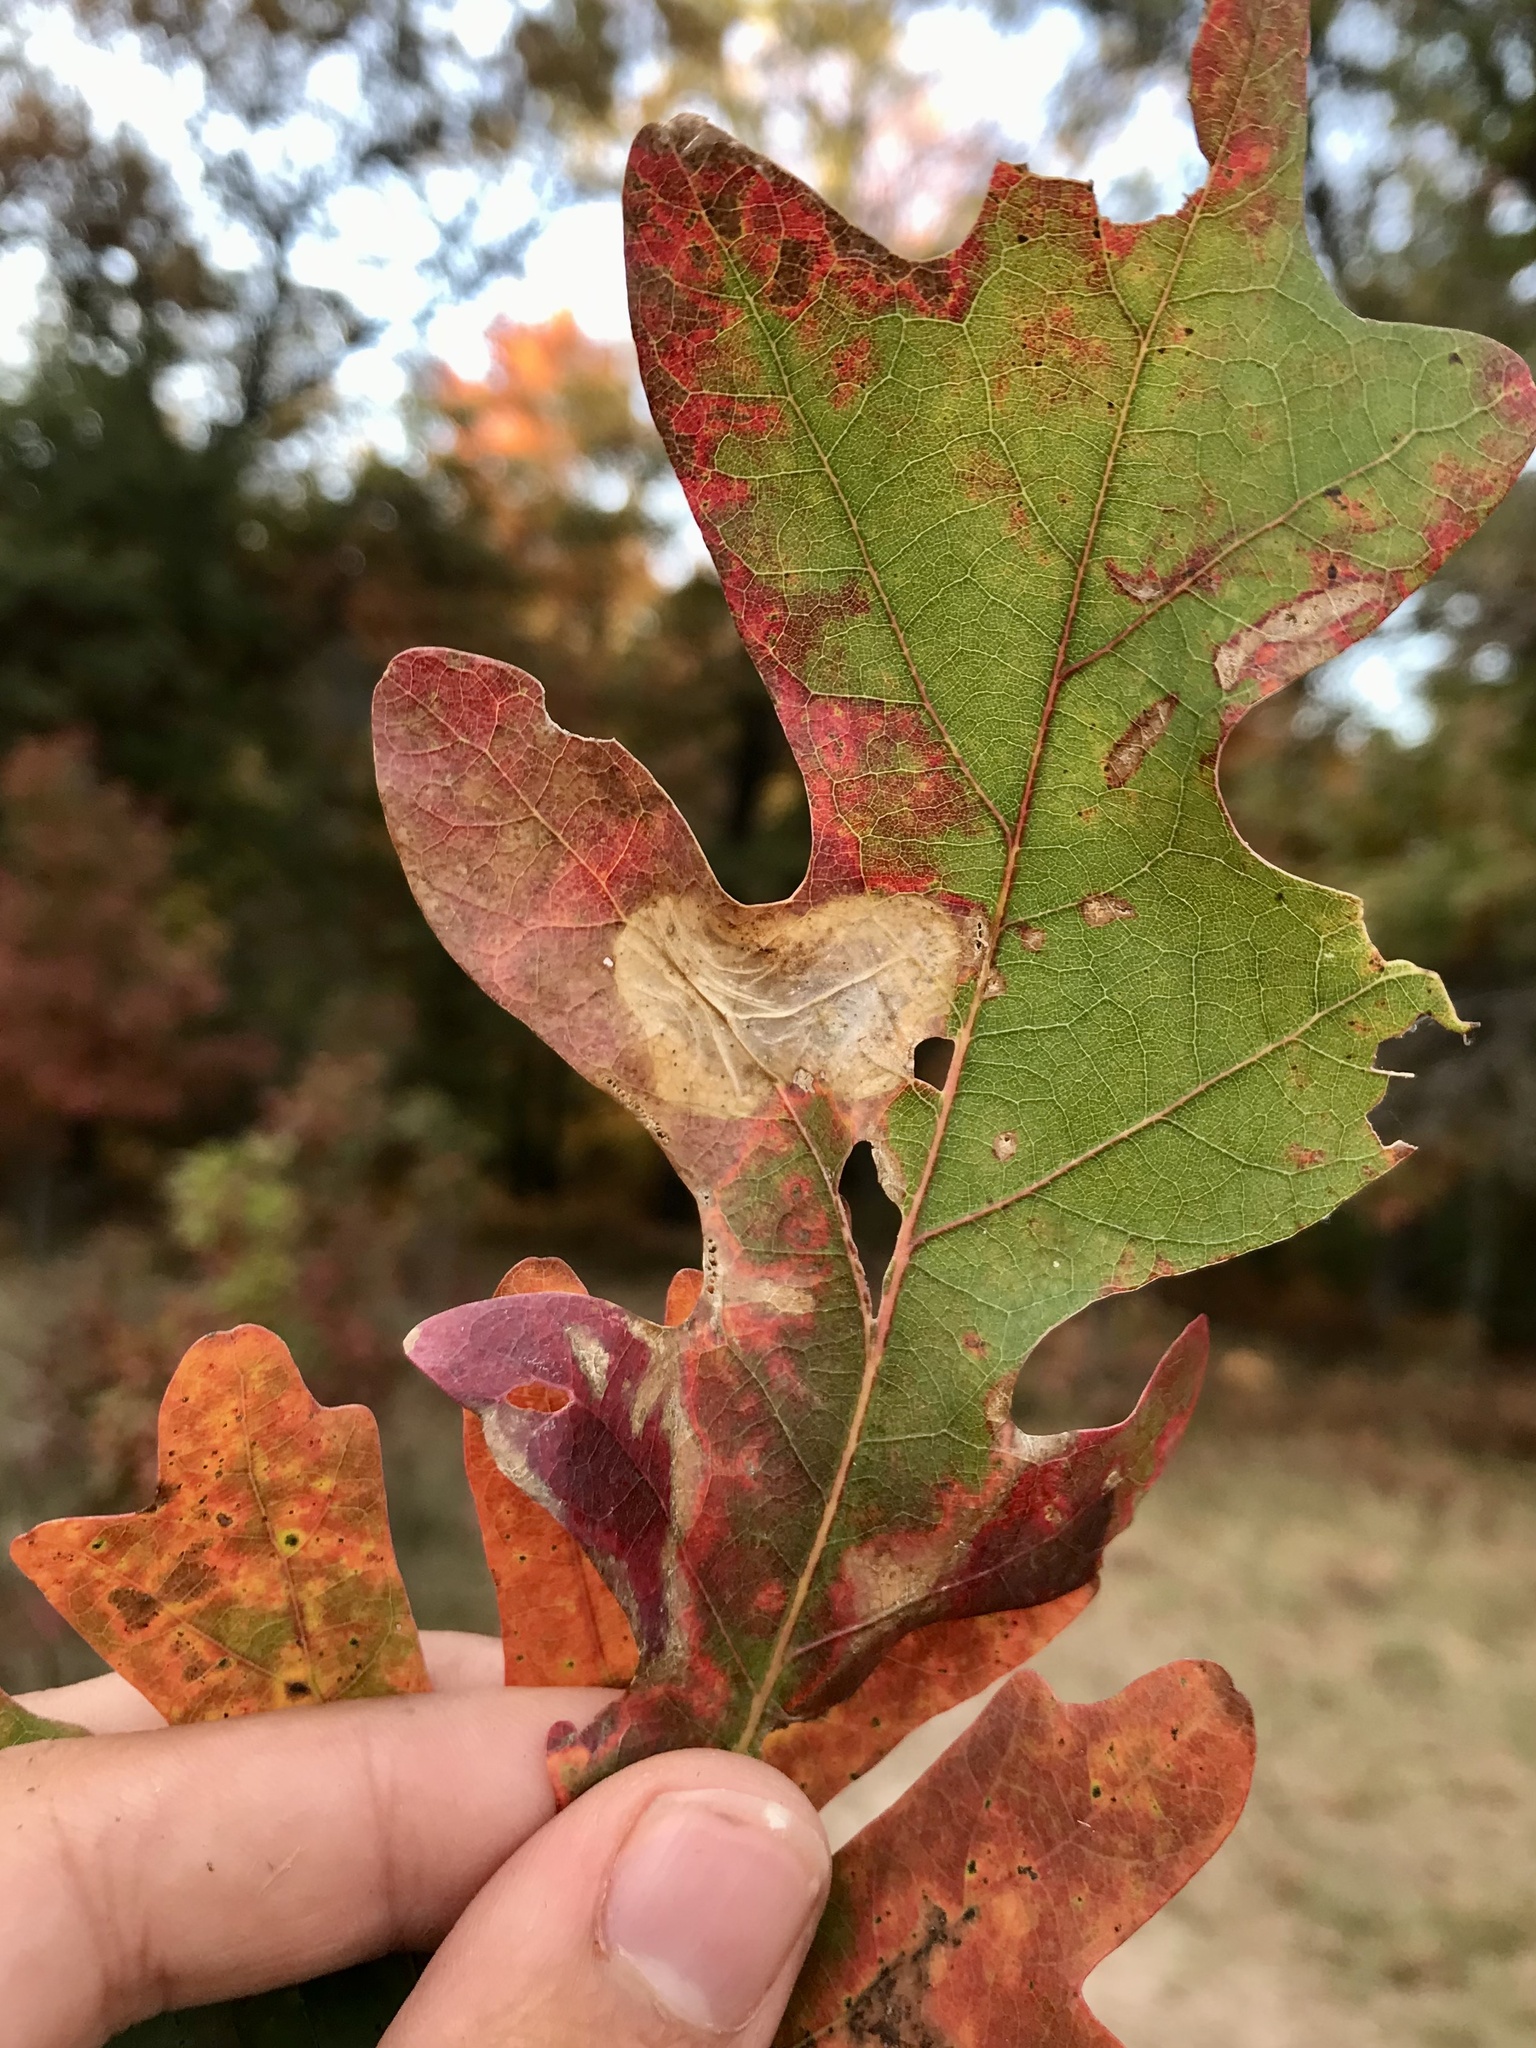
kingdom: Animalia
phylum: Arthropoda
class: Insecta
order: Lepidoptera
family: Gracillariidae
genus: Cameraria
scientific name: Cameraria
